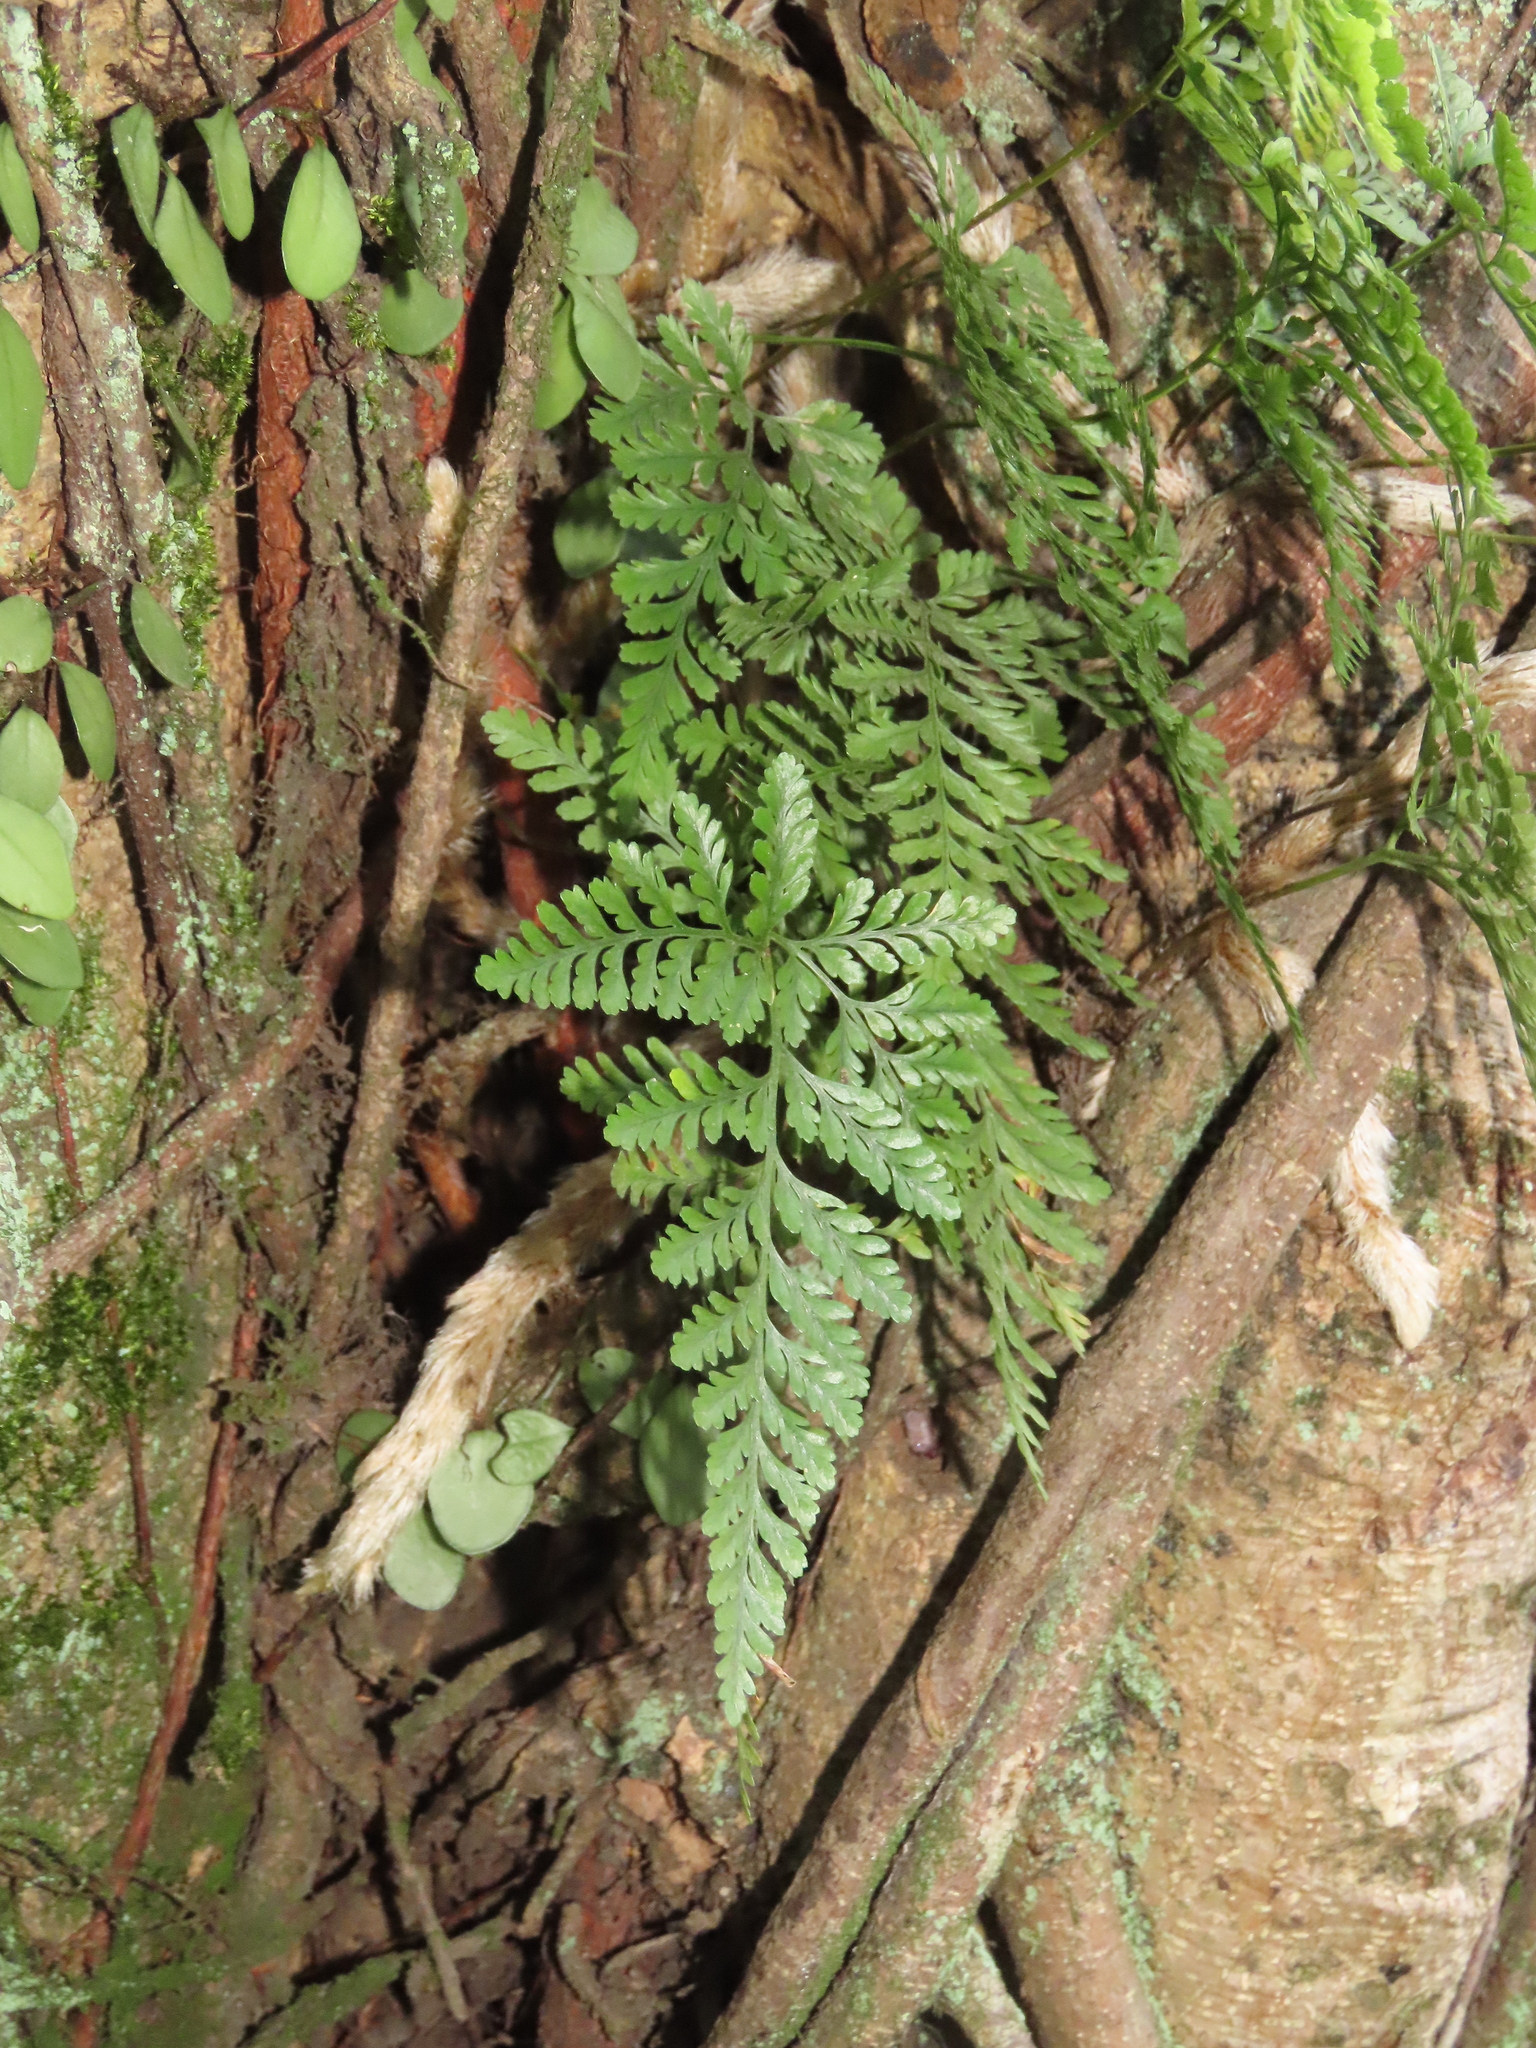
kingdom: Plantae
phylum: Tracheophyta
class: Polypodiopsida
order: Polypodiales
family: Davalliaceae
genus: Davallia
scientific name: Davallia griffithiana
